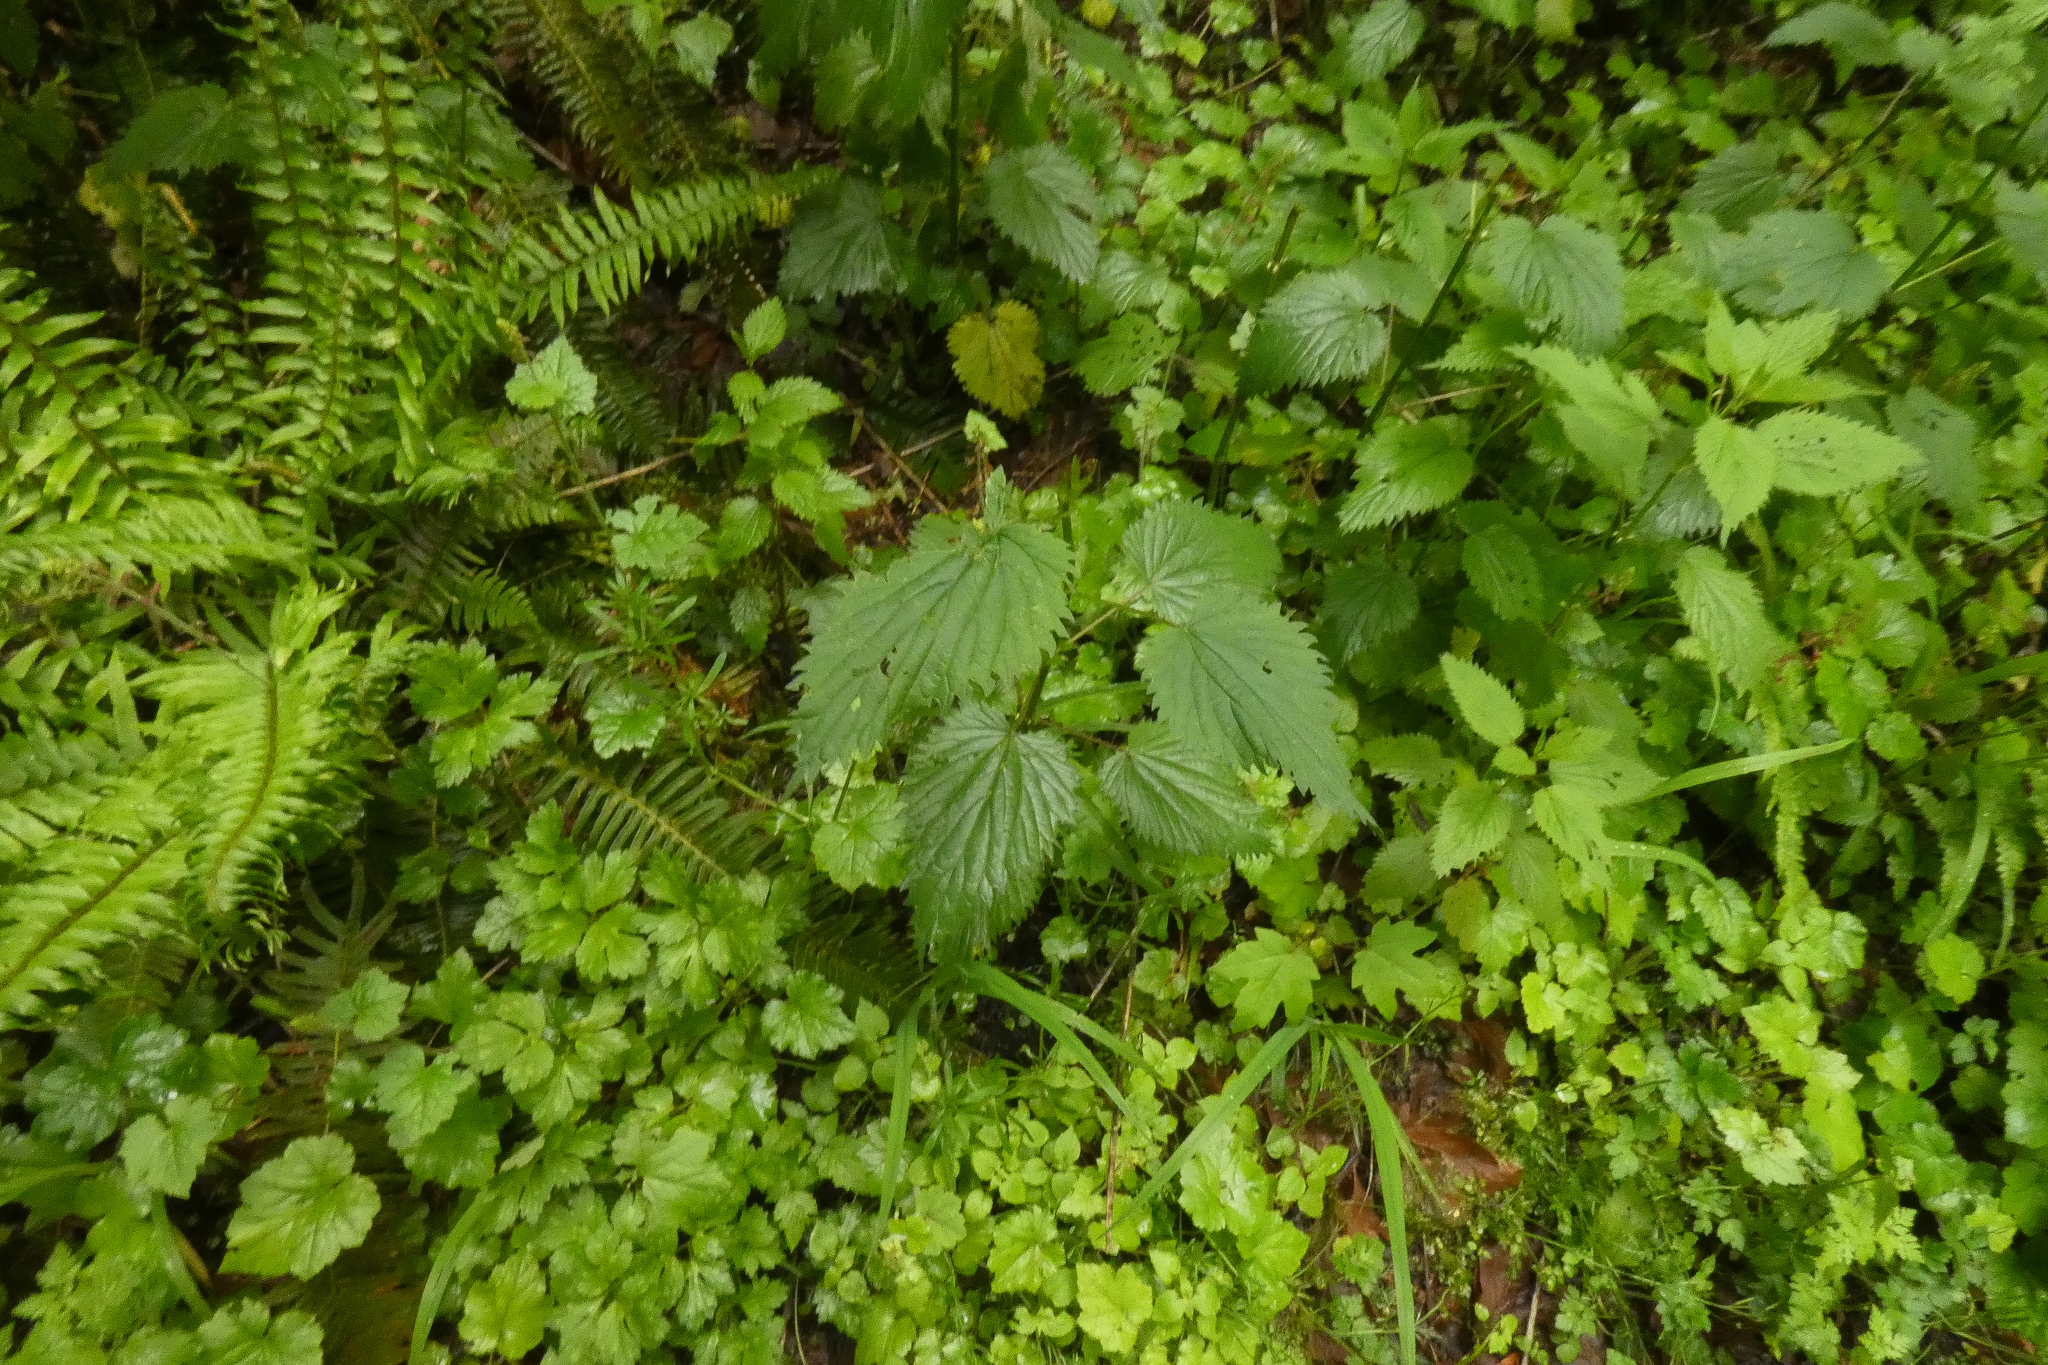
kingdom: Plantae
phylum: Tracheophyta
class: Magnoliopsida
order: Rosales
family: Urticaceae
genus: Urtica
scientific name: Urtica gracilis
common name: Slender stinging nettle
